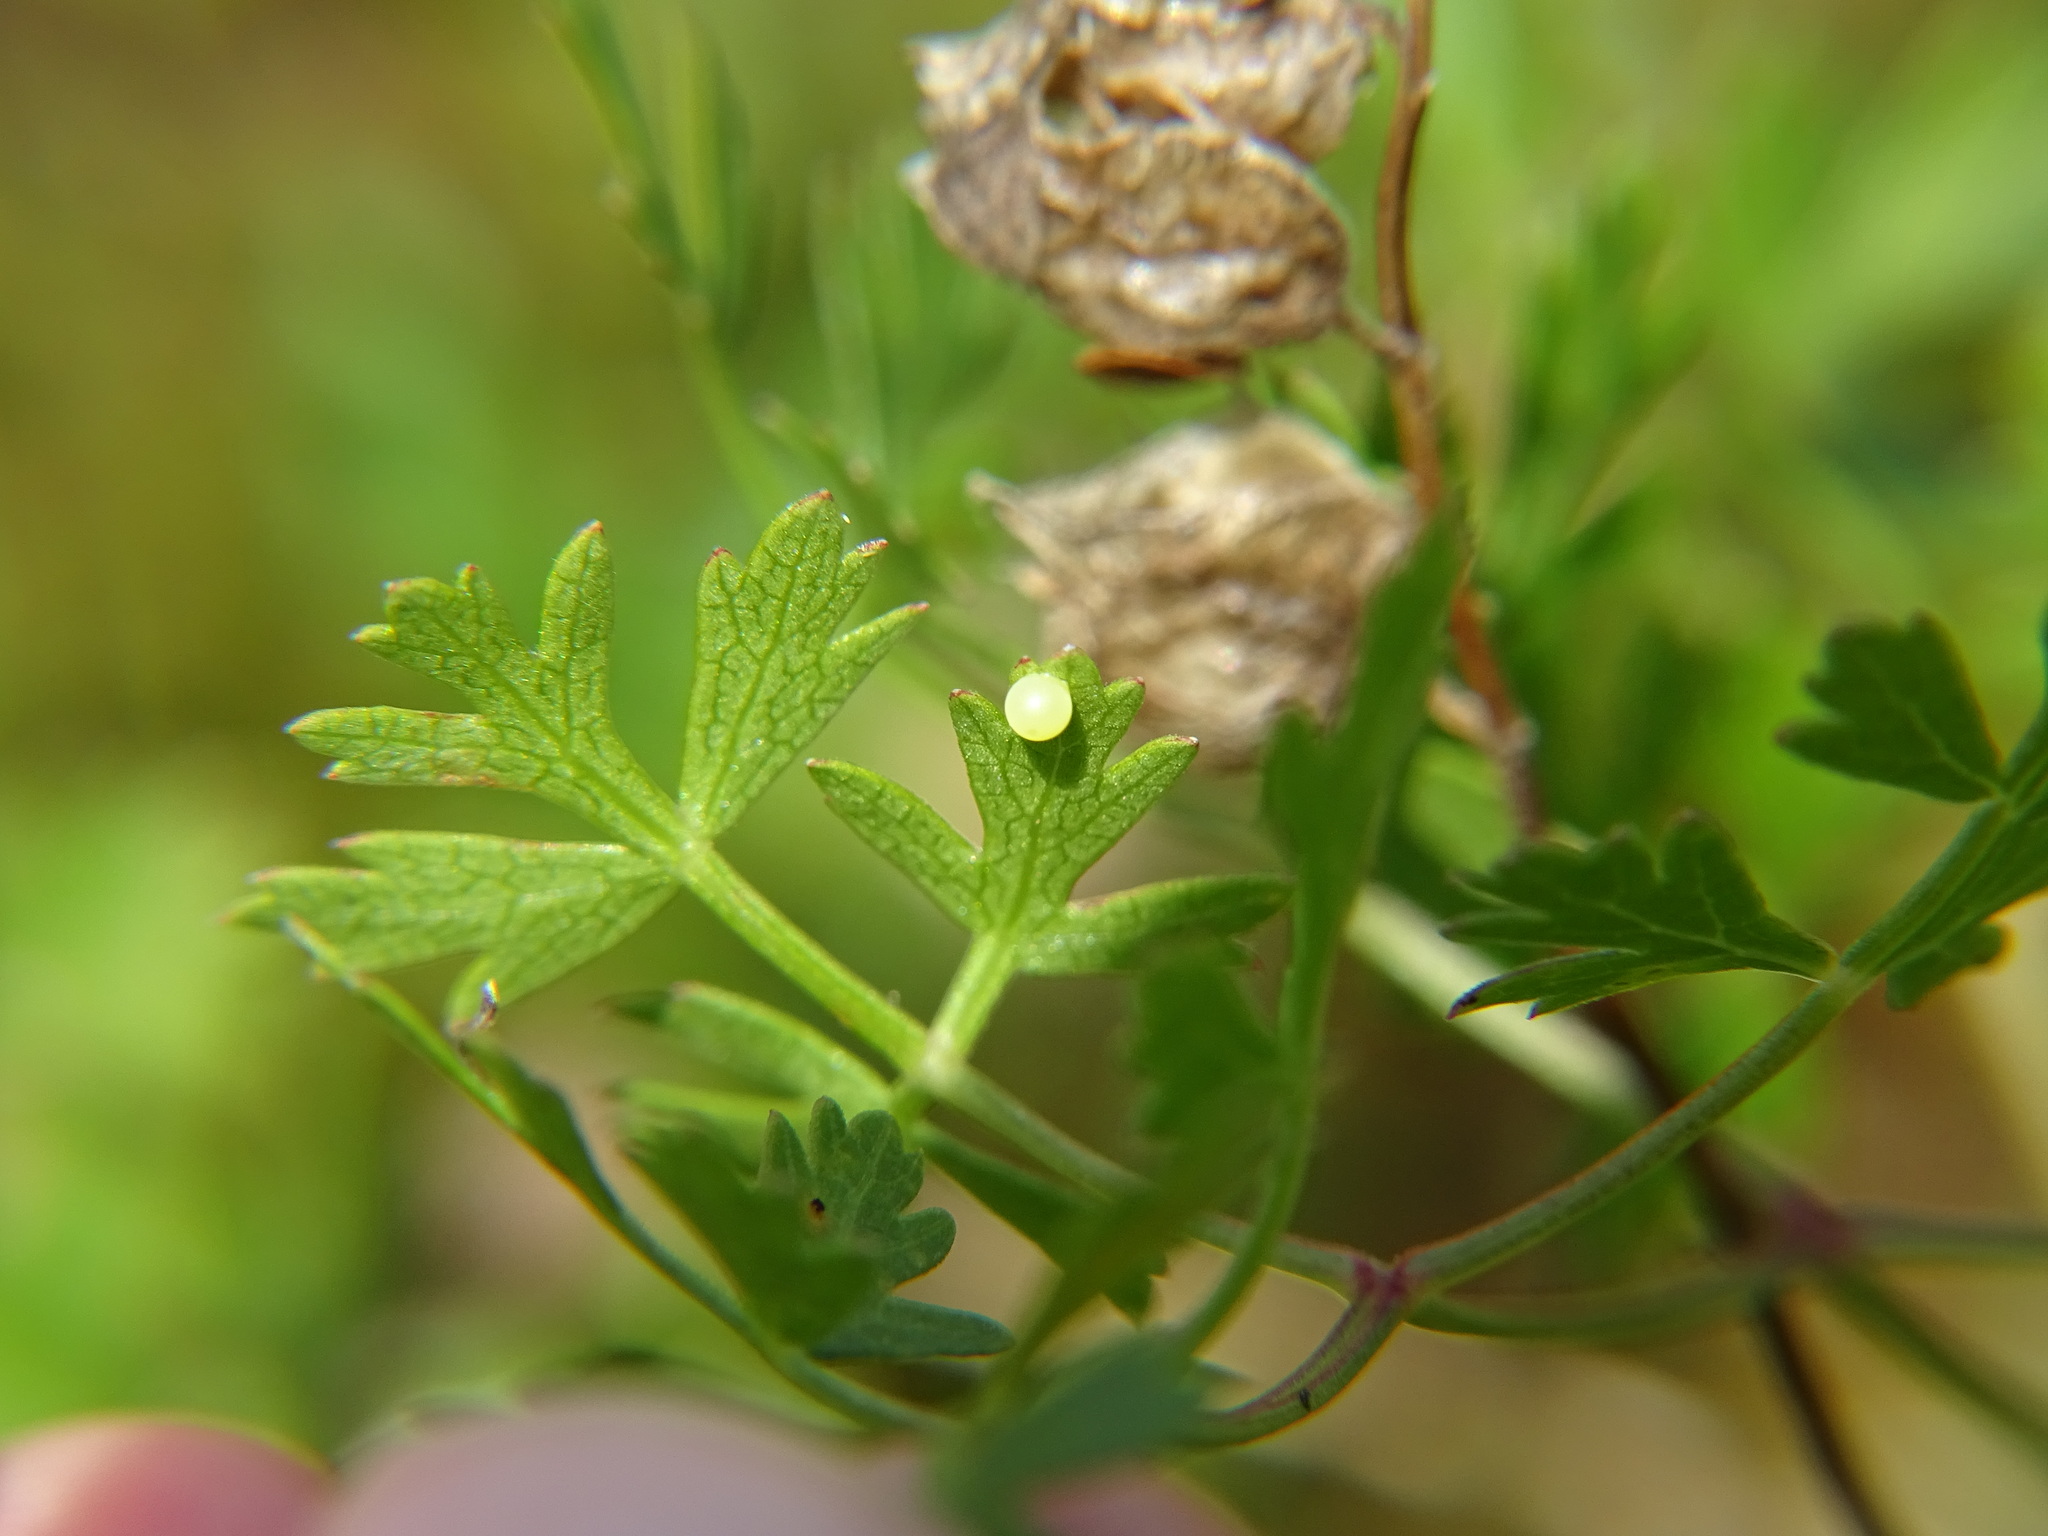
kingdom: Animalia
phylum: Arthropoda
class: Insecta
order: Lepidoptera
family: Papilionidae
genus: Papilio
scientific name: Papilio machaon
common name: Swallowtail
